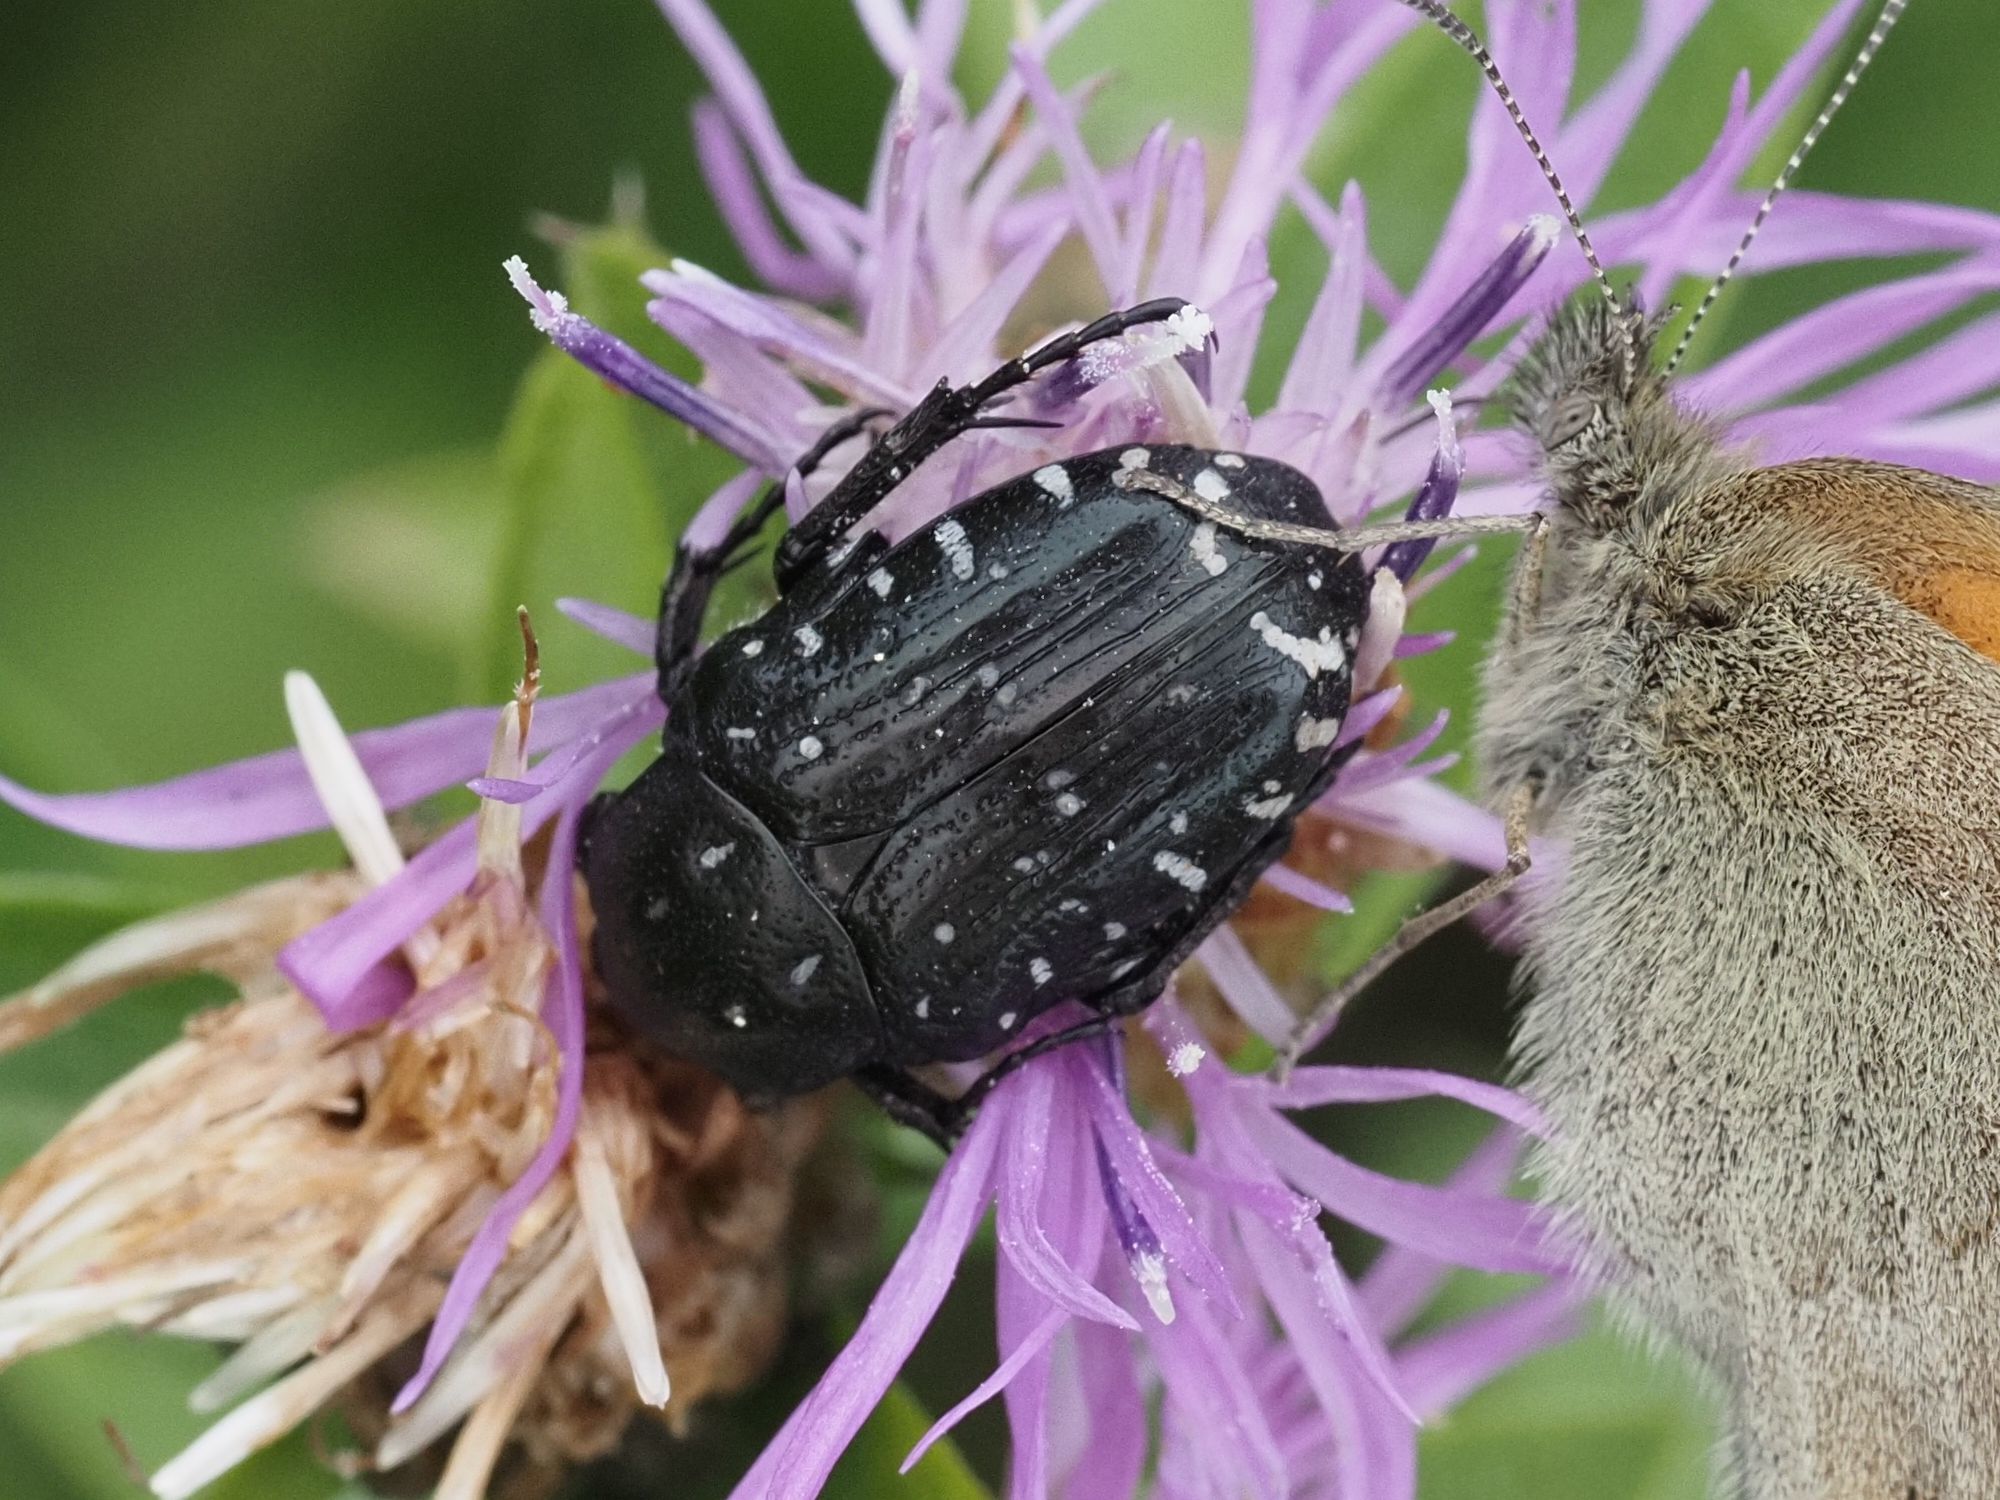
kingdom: Animalia
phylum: Arthropoda
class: Insecta
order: Coleoptera
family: Scarabaeidae
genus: Oxythyrea
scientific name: Oxythyrea funesta
